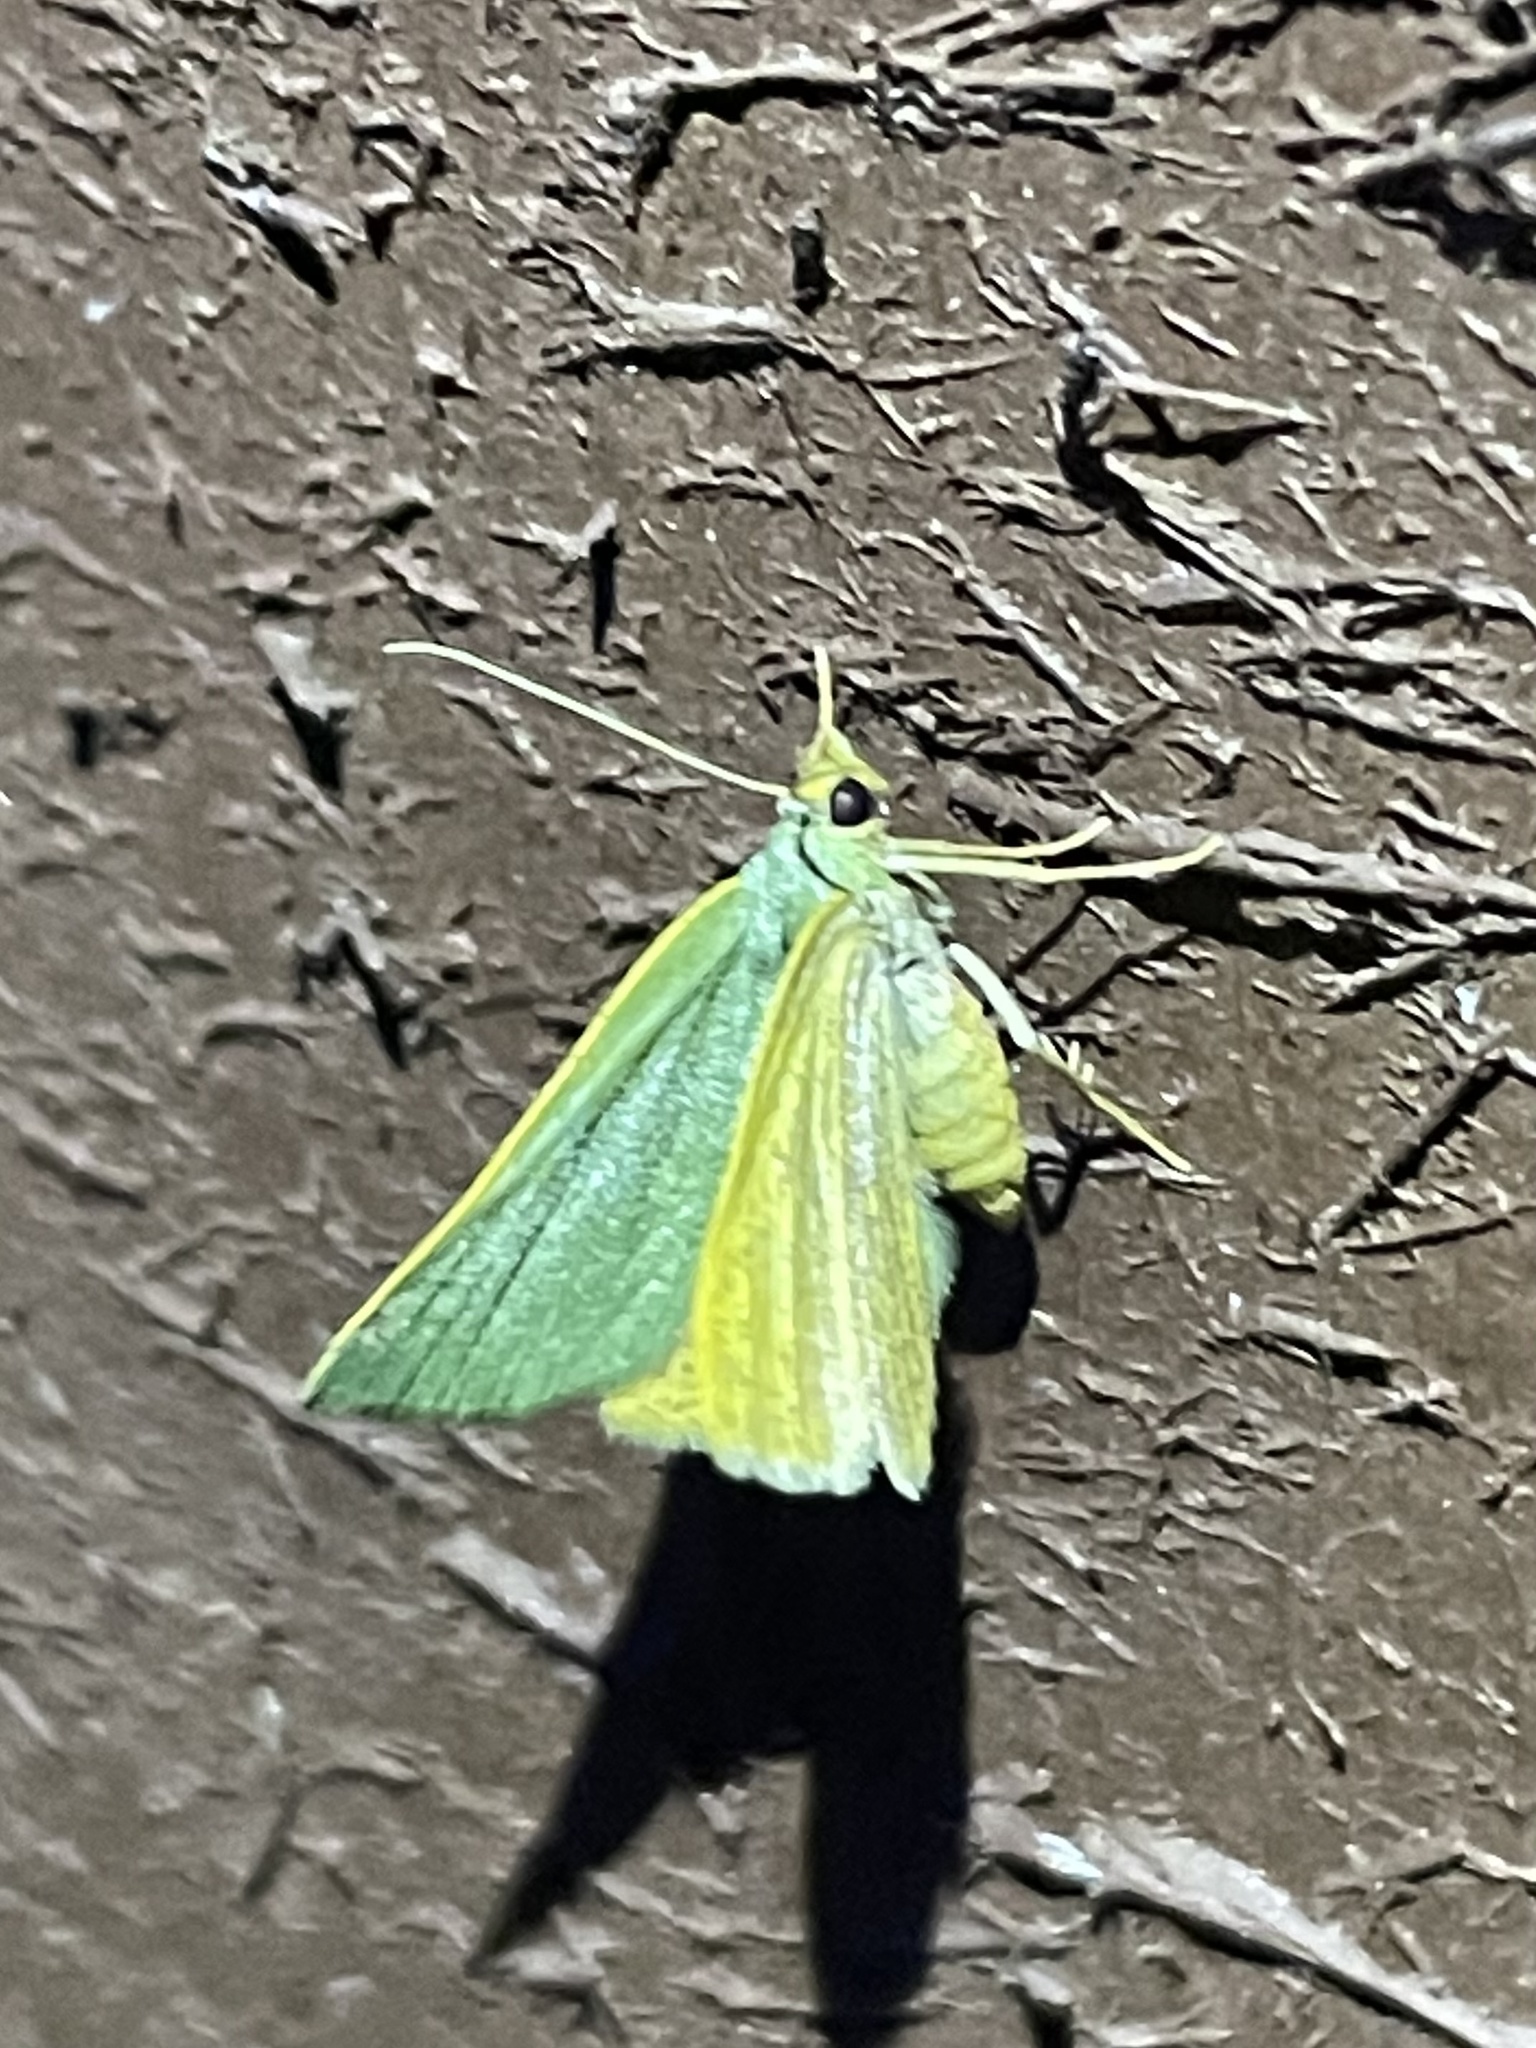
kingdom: Animalia
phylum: Arthropoda
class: Insecta
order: Lepidoptera
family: Geometridae
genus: Chloraspilates
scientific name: Chloraspilates bicoloraria
